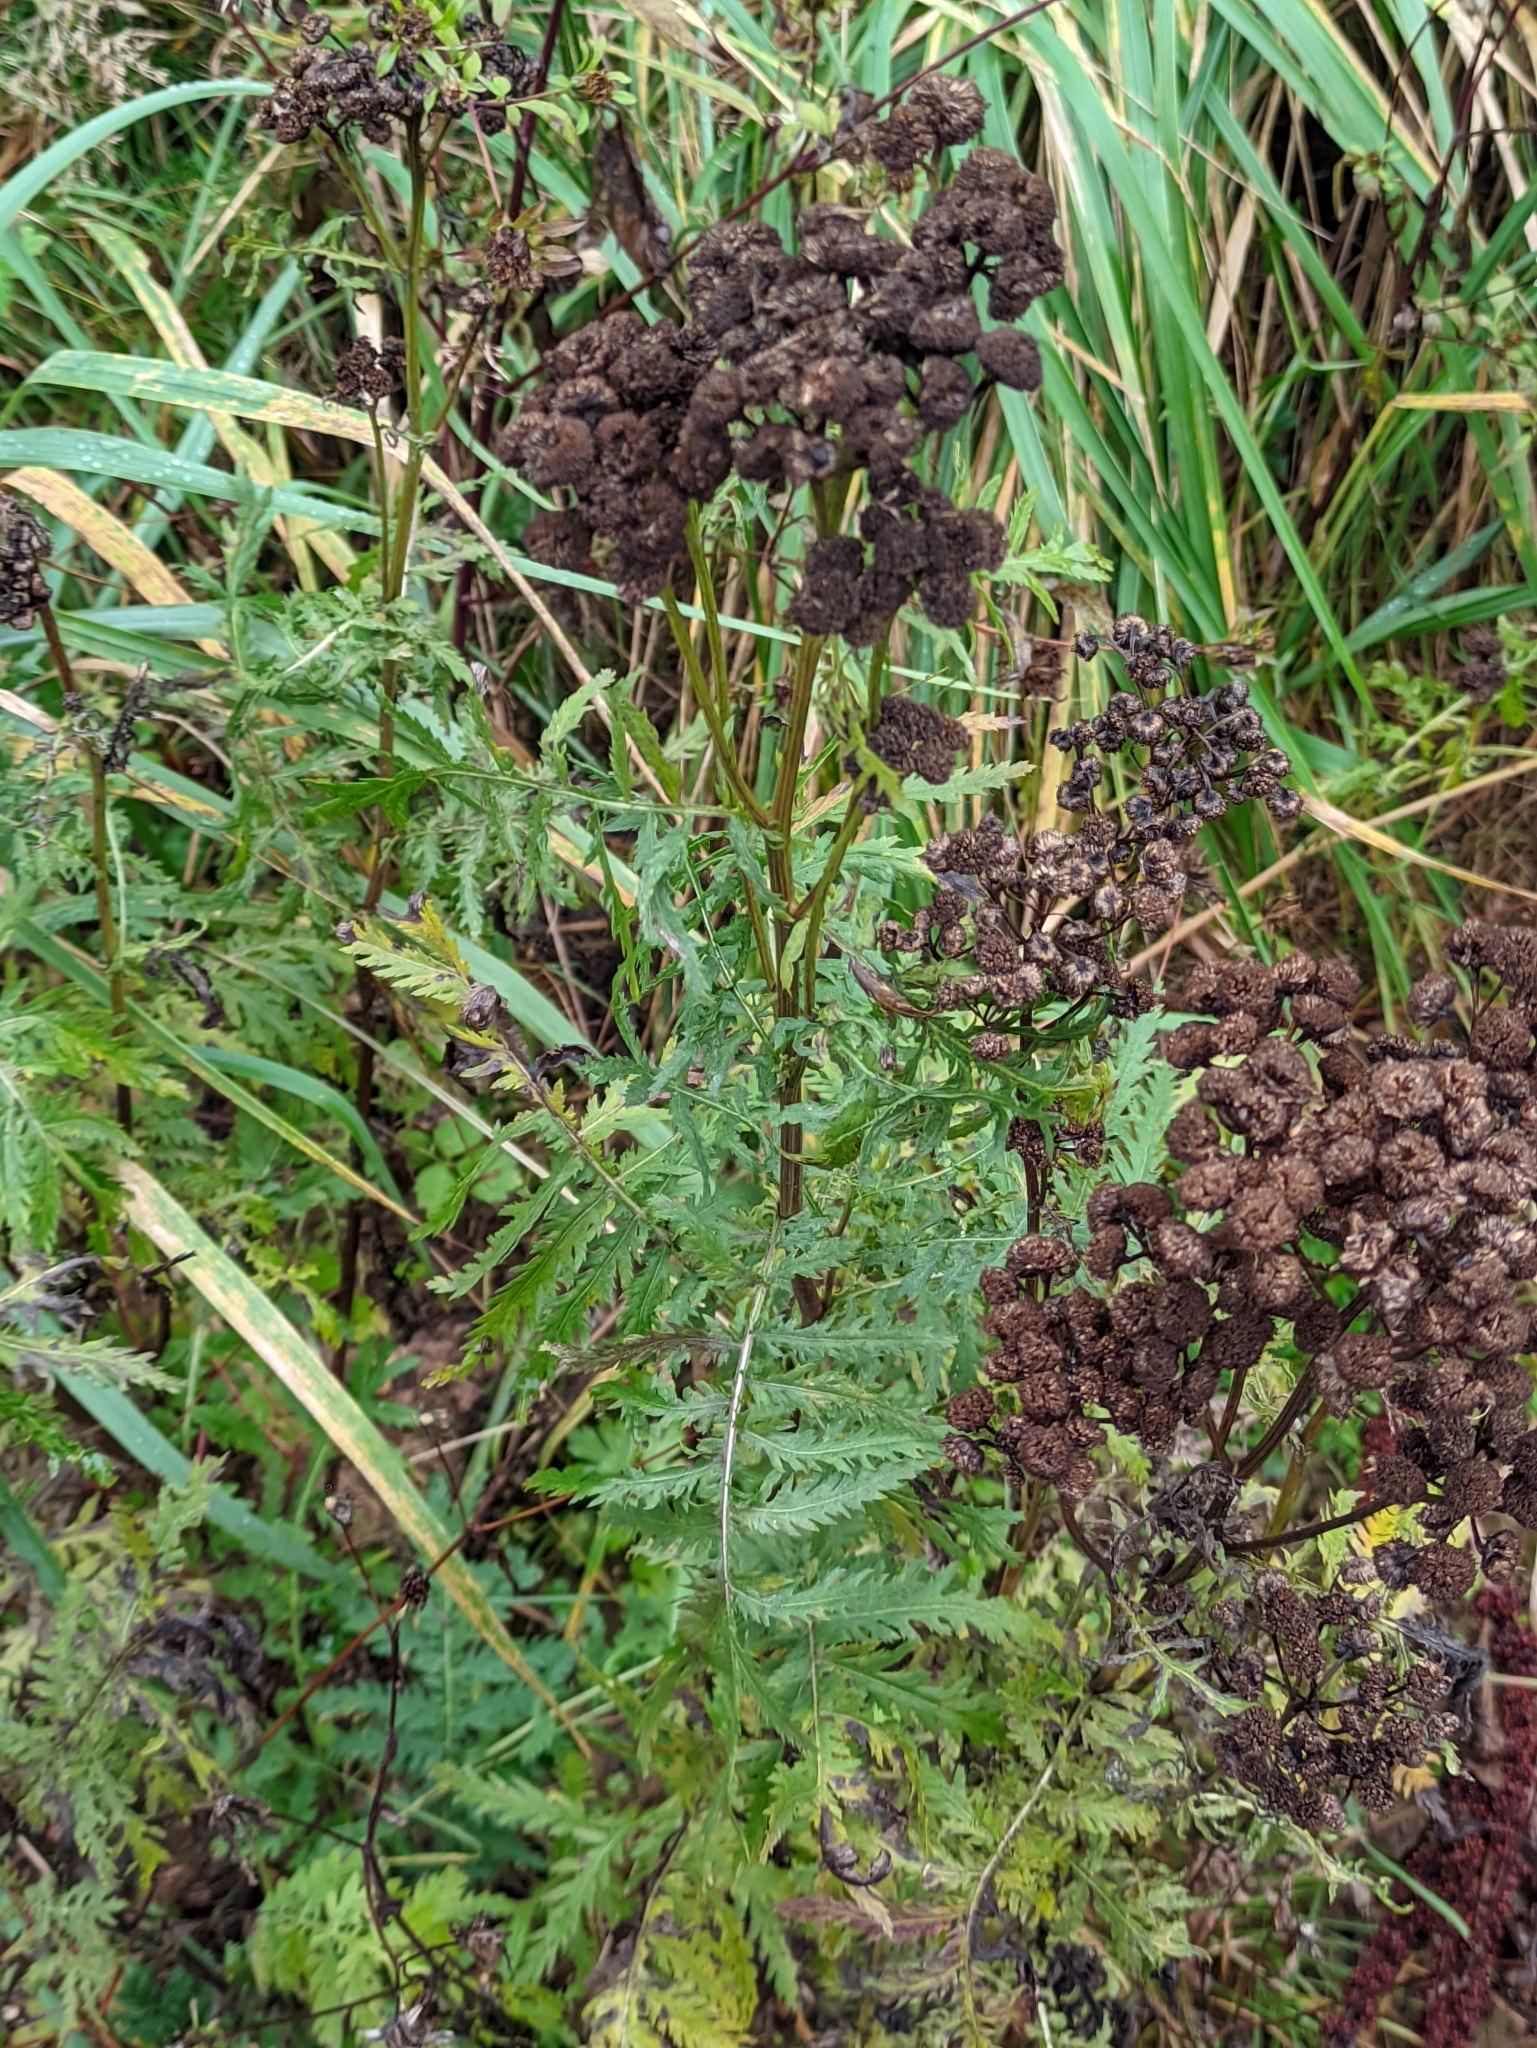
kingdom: Plantae
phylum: Tracheophyta
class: Magnoliopsida
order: Asterales
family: Asteraceae
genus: Tanacetum
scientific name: Tanacetum vulgare
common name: Common tansy
